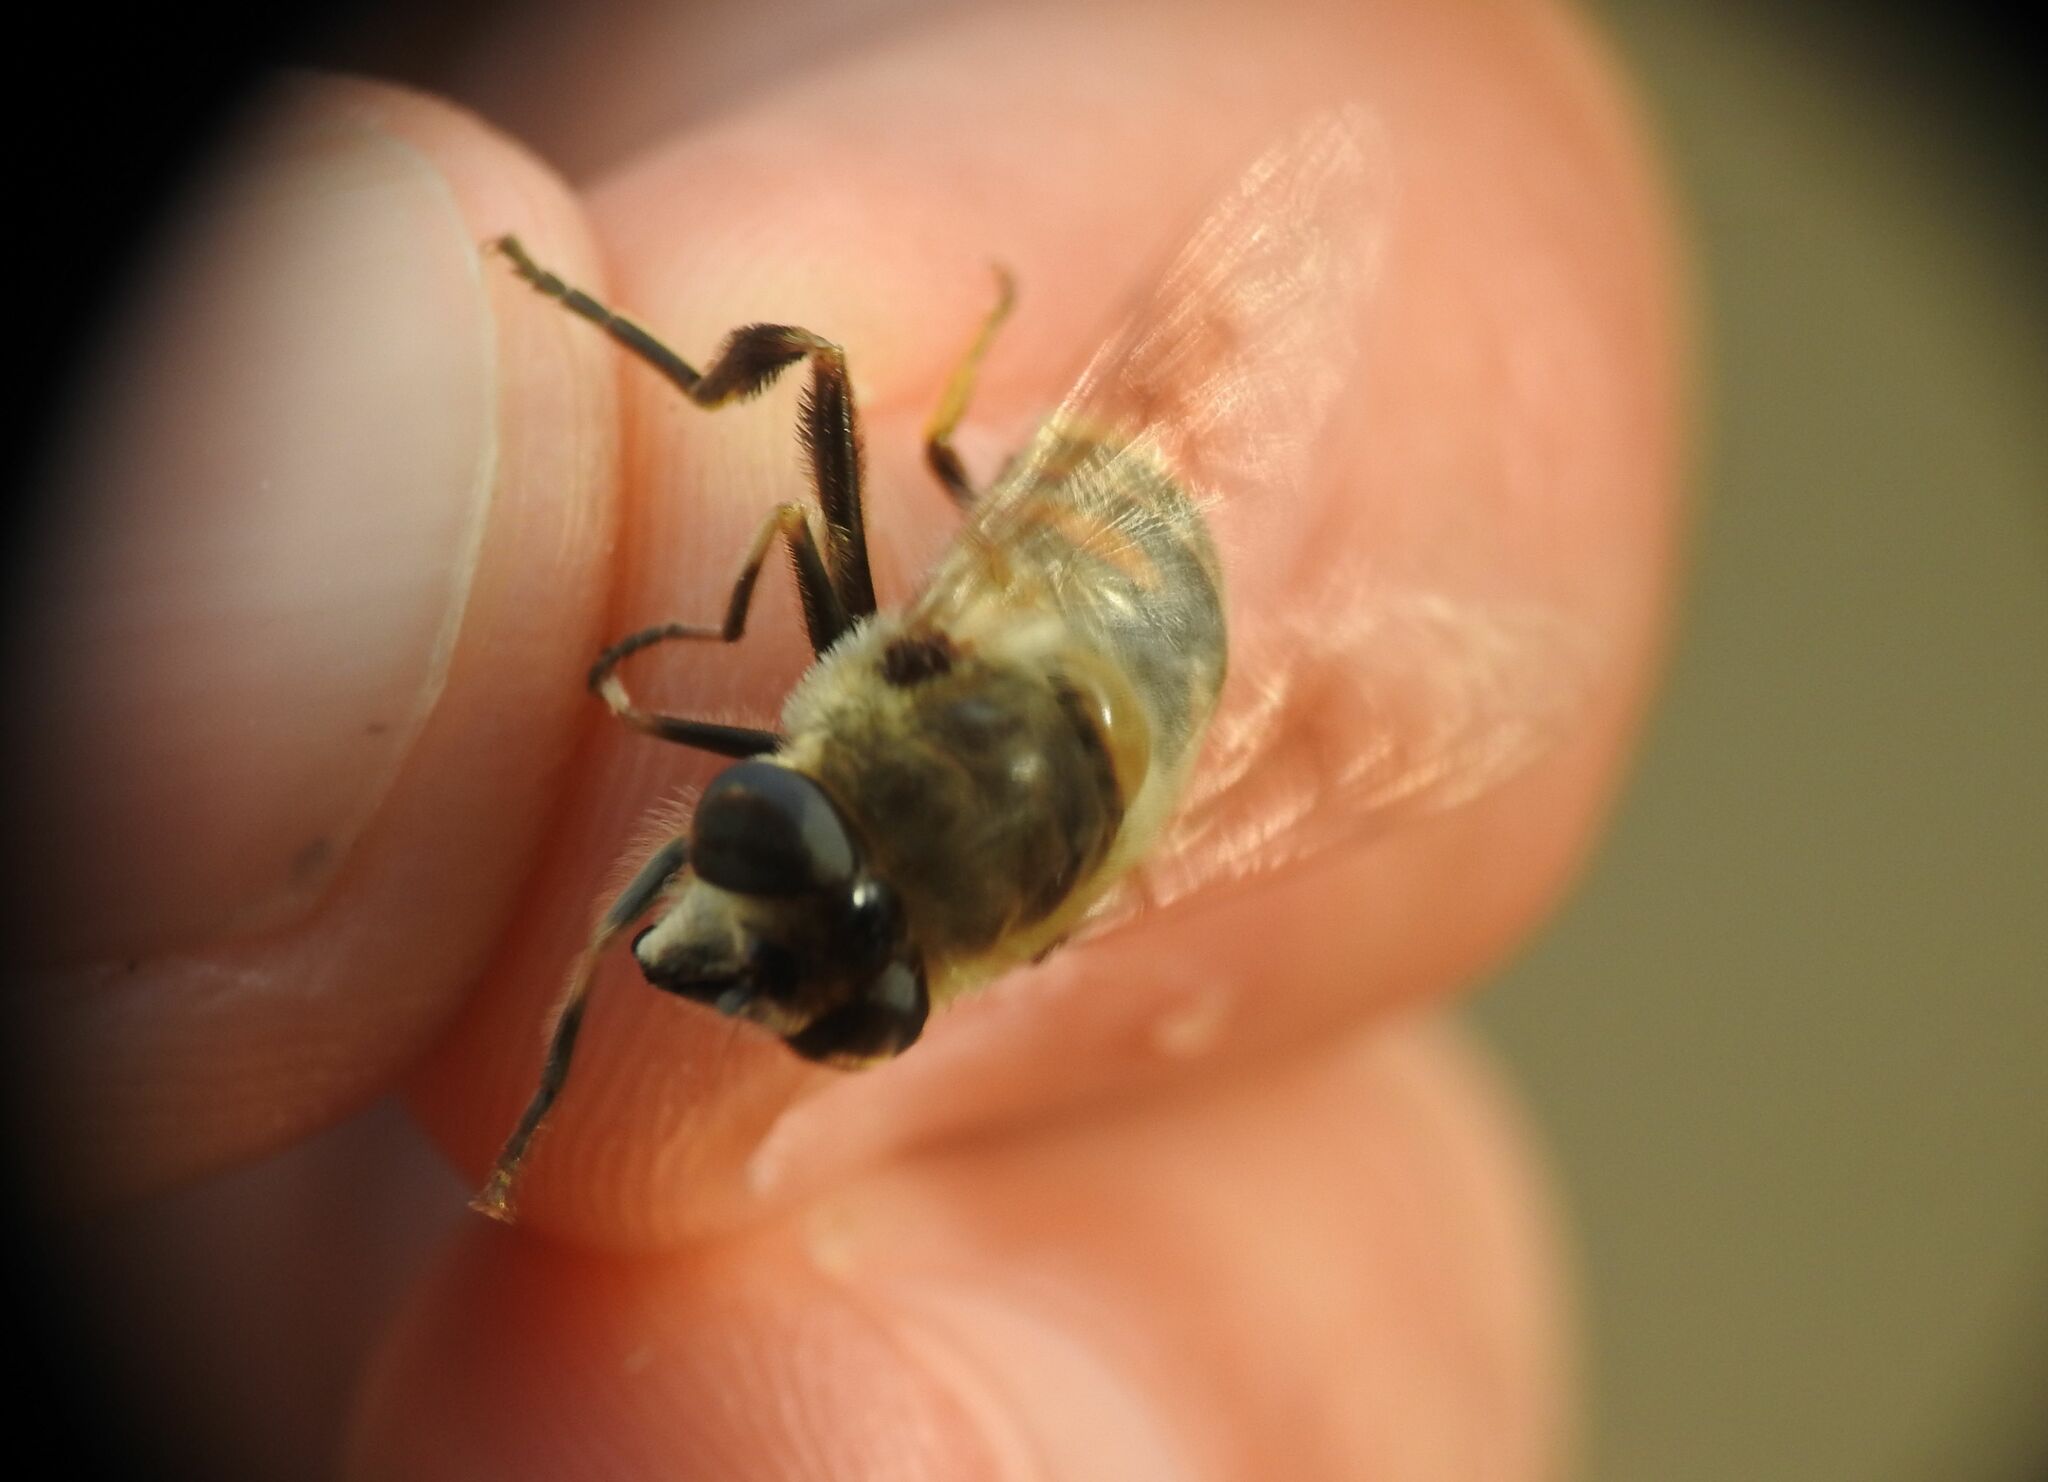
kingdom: Animalia
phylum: Arthropoda
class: Insecta
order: Diptera
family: Syrphidae
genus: Eristalis
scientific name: Eristalis tenax
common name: Drone fly
